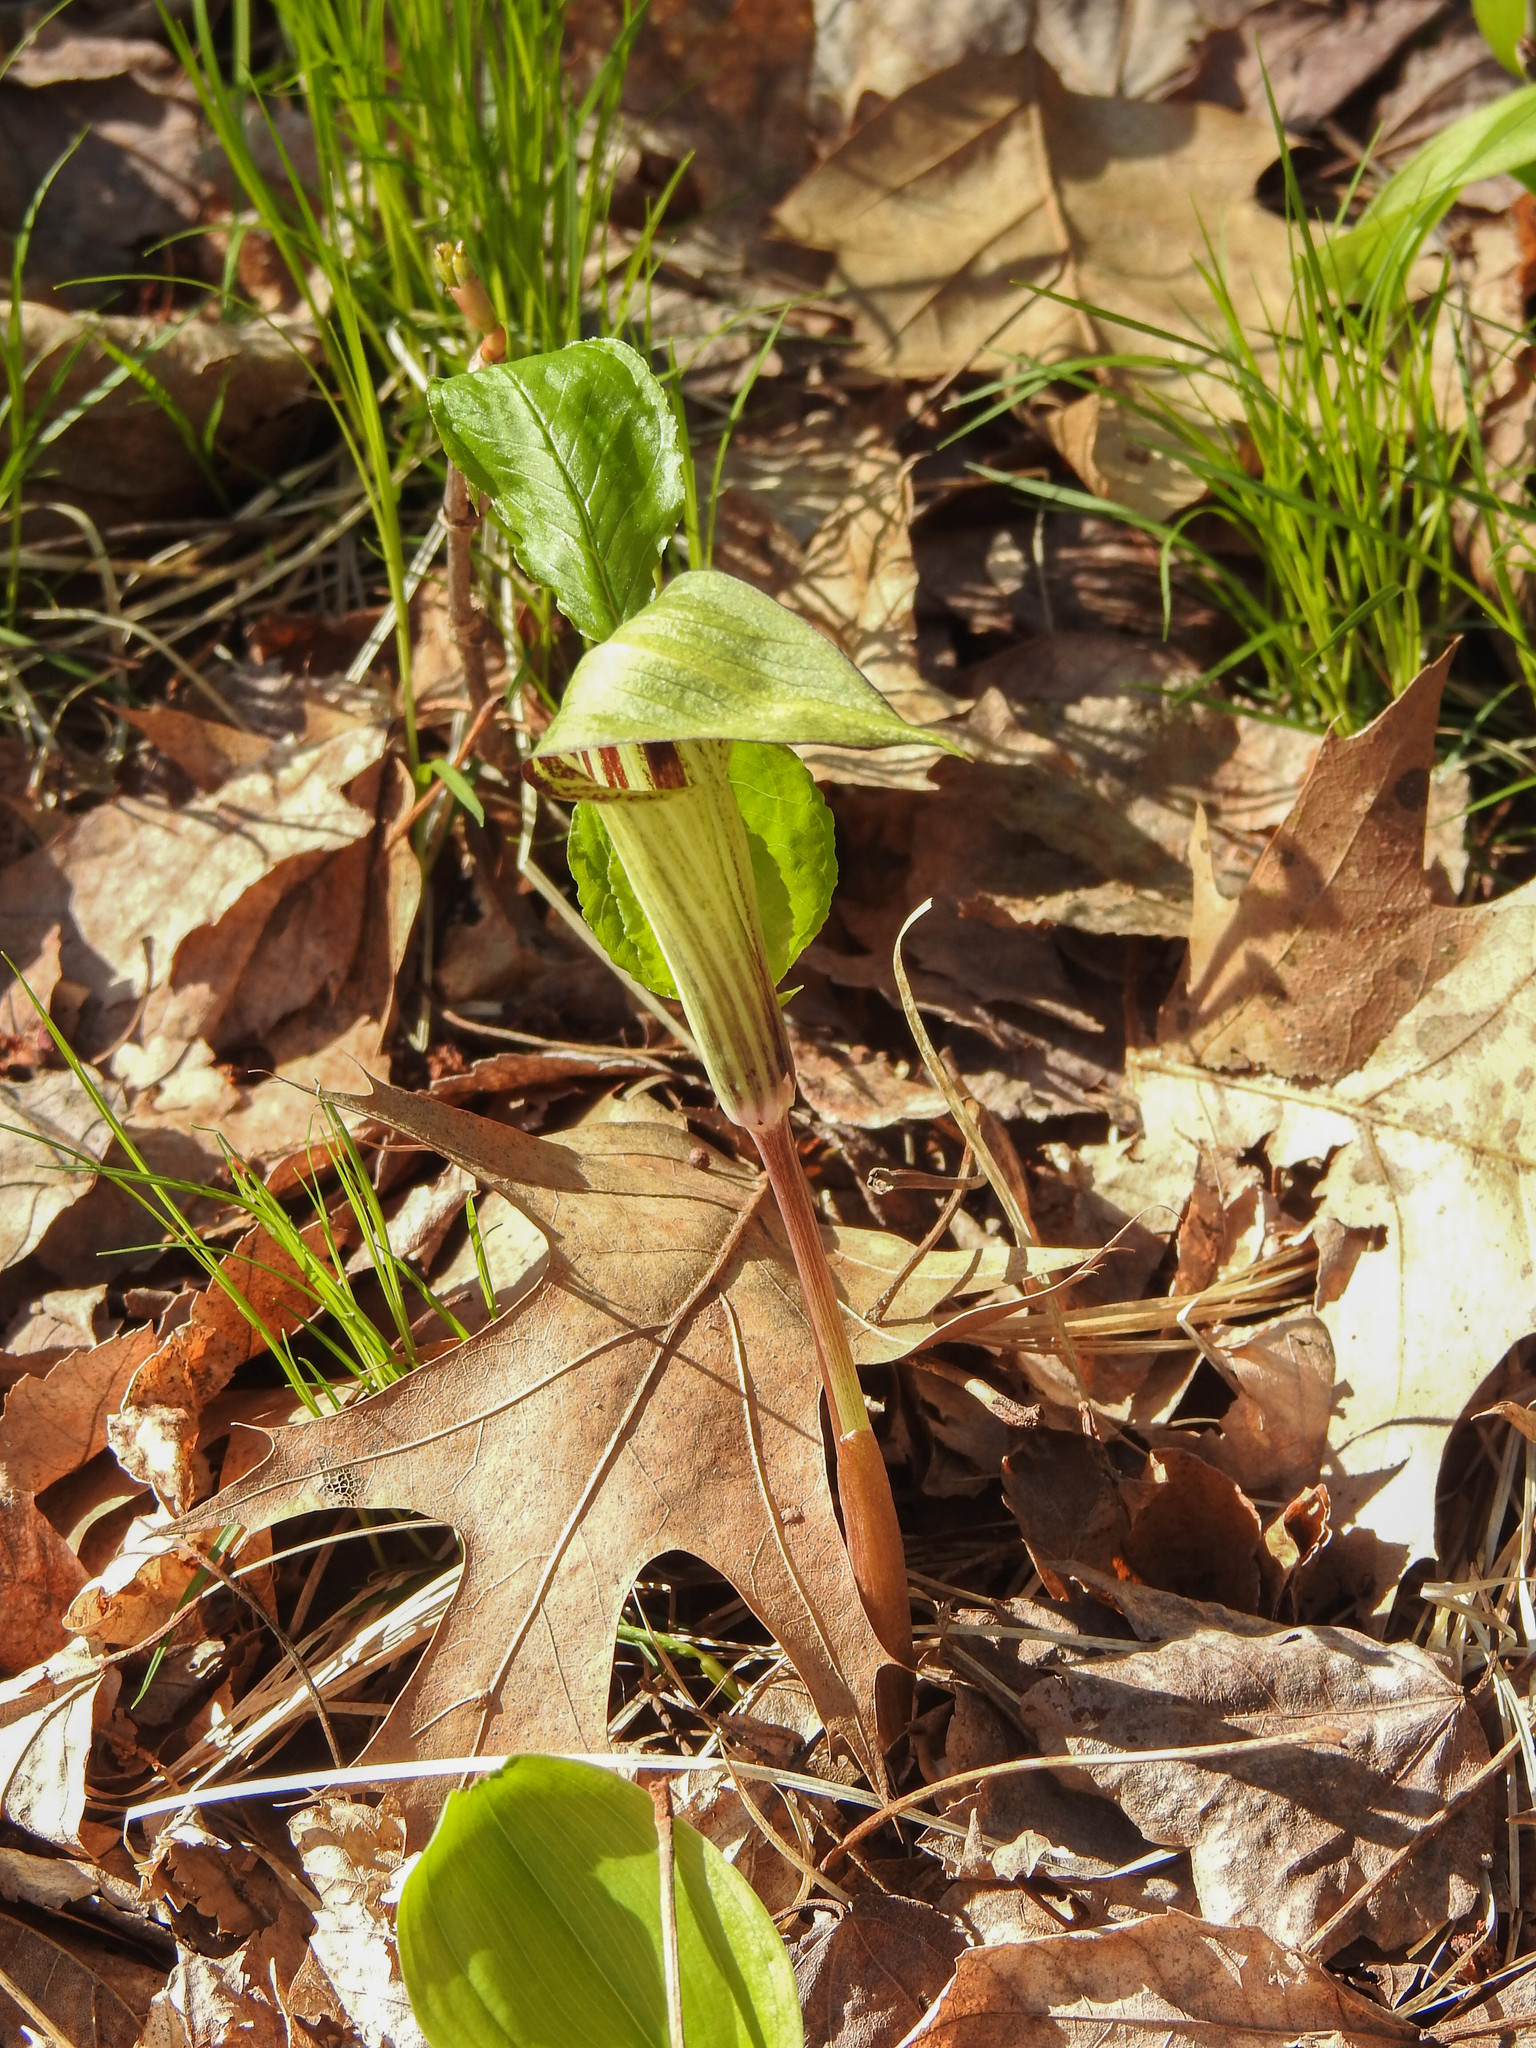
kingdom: Plantae
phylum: Tracheophyta
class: Liliopsida
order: Alismatales
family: Araceae
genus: Arisaema
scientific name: Arisaema triphyllum
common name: Jack-in-the-pulpit
